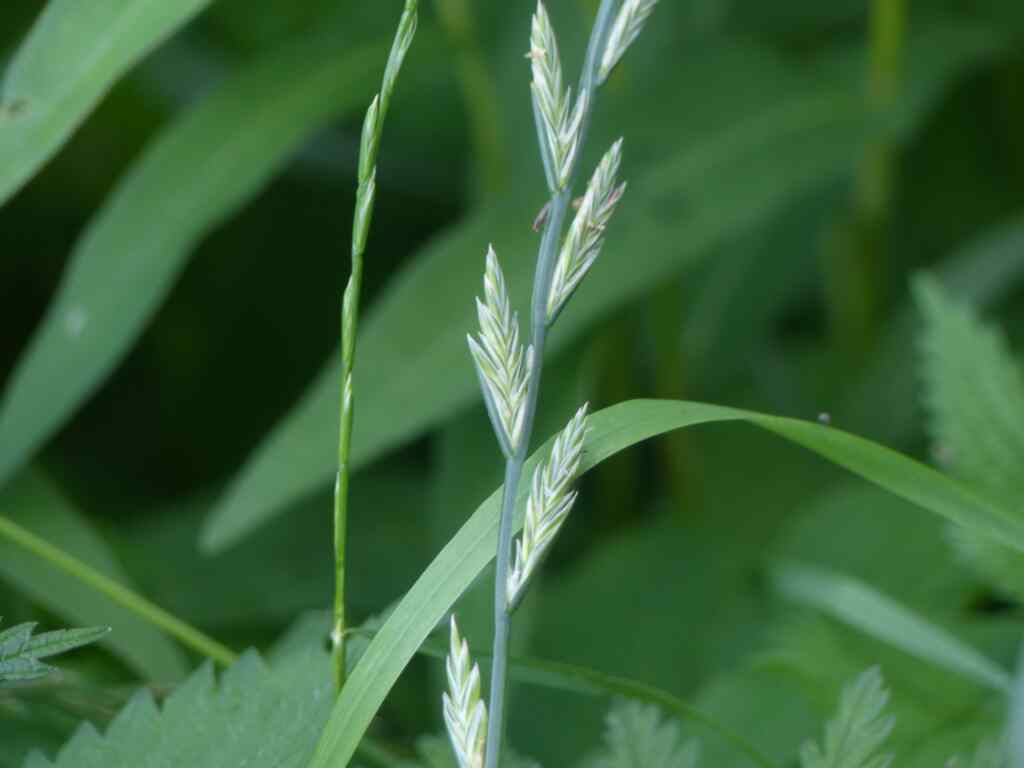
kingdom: Plantae
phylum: Tracheophyta
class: Liliopsida
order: Poales
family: Poaceae
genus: Lolium
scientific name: Lolium perenne
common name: Perennial ryegrass
